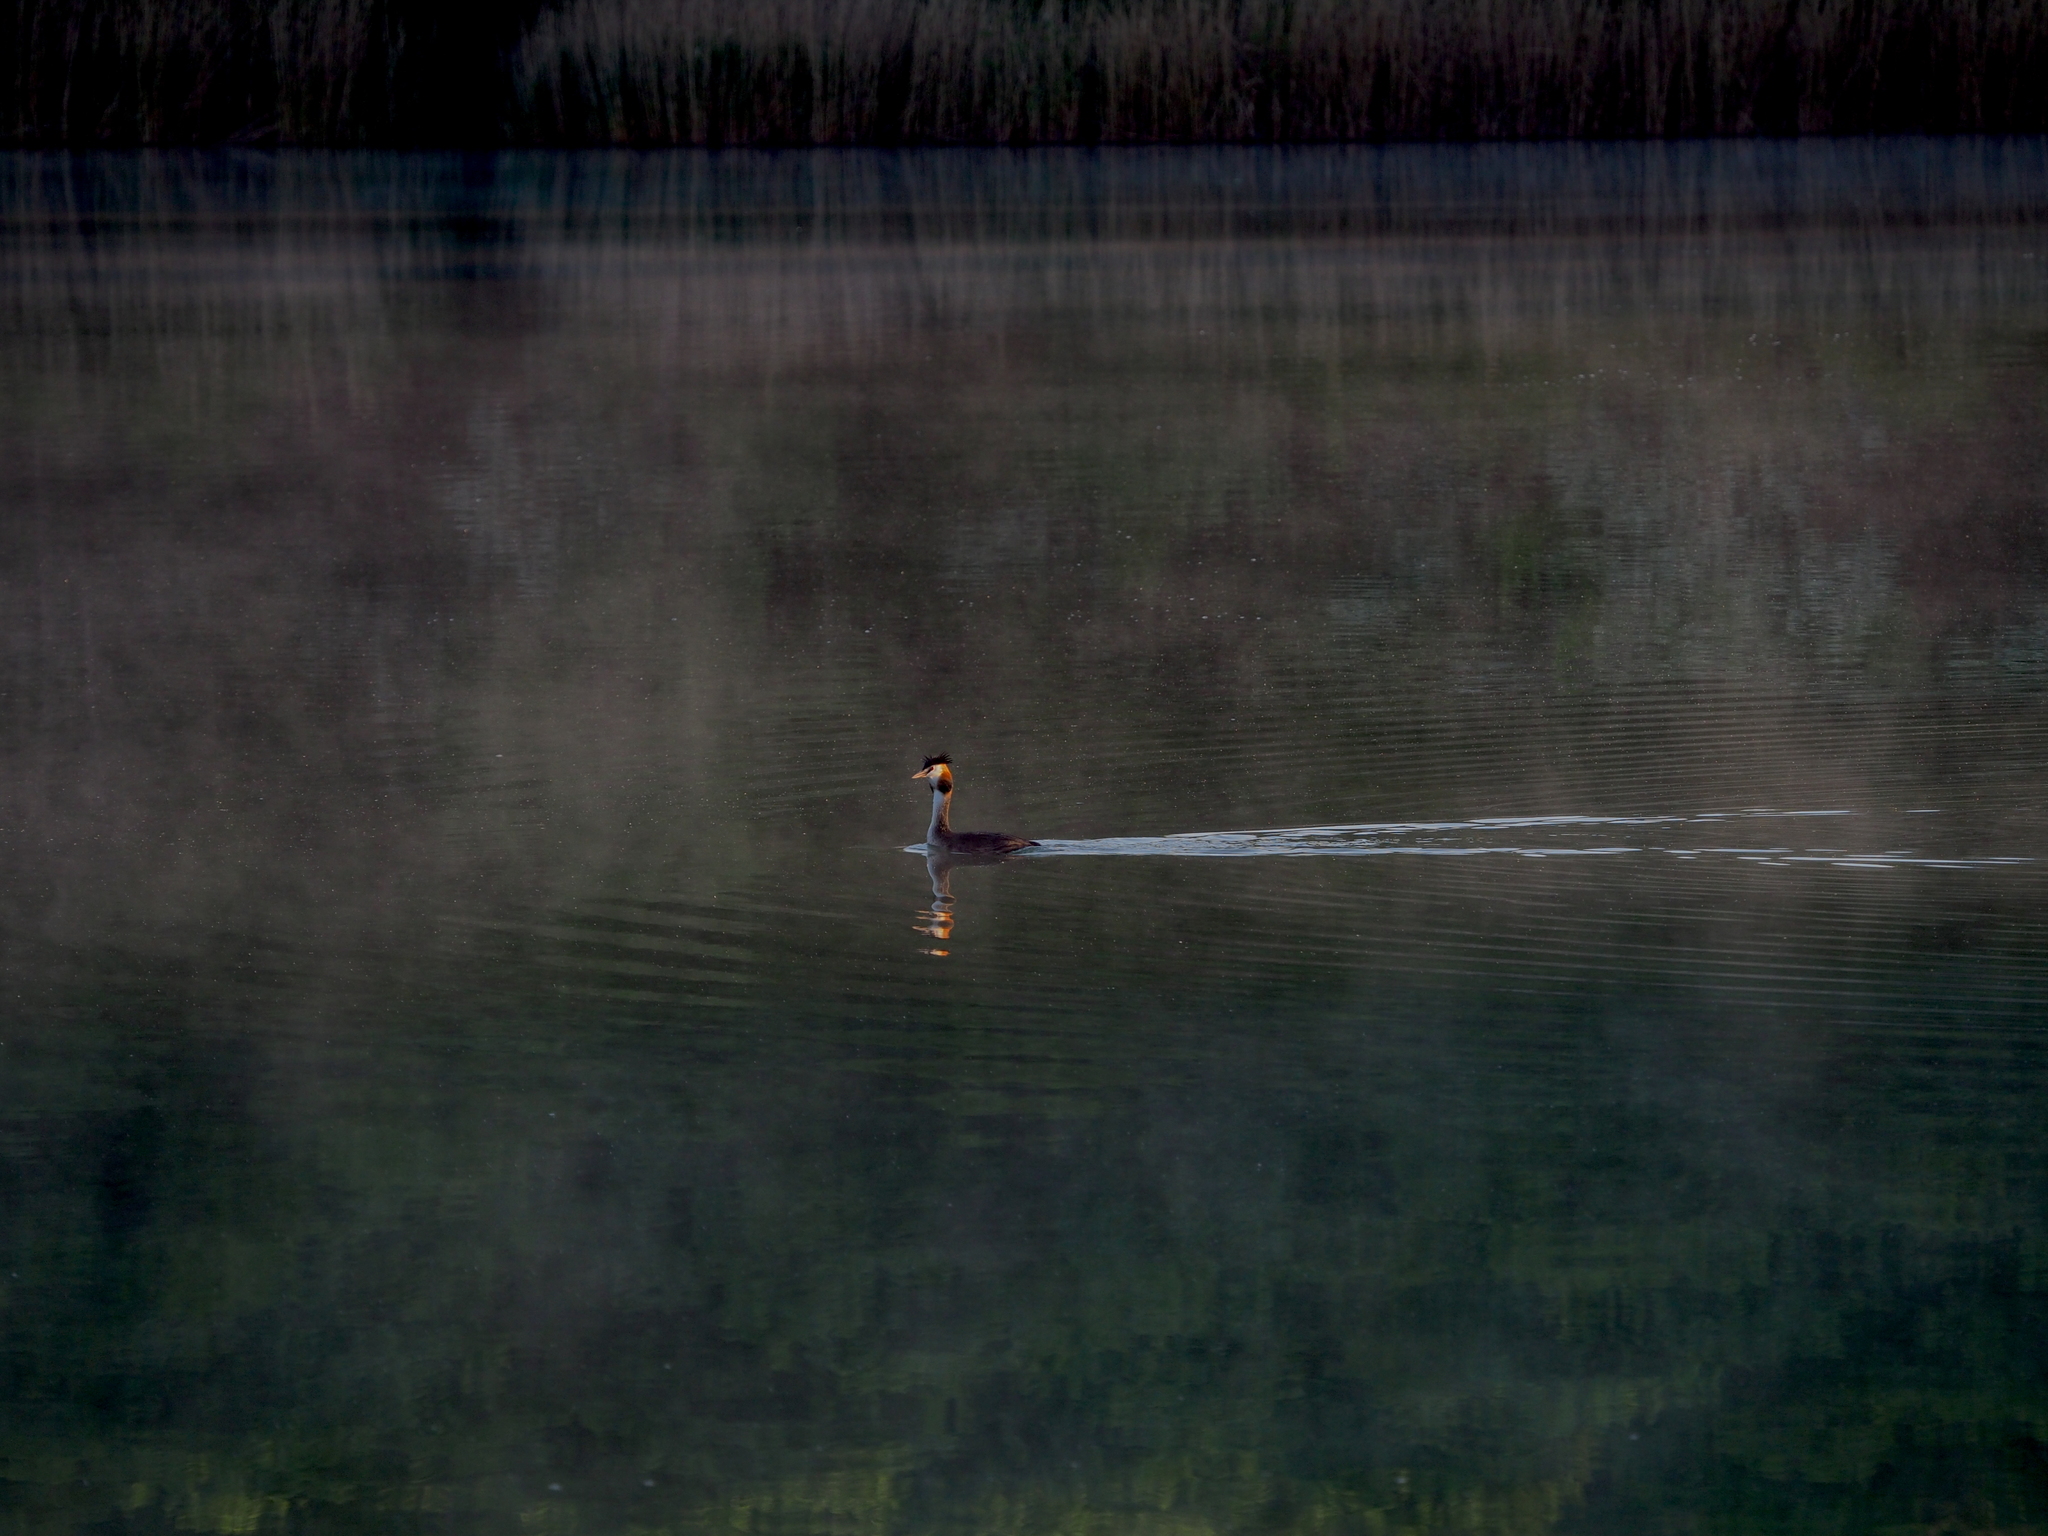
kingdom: Animalia
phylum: Chordata
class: Aves
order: Podicipediformes
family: Podicipedidae
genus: Podiceps
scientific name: Podiceps cristatus
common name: Great crested grebe
